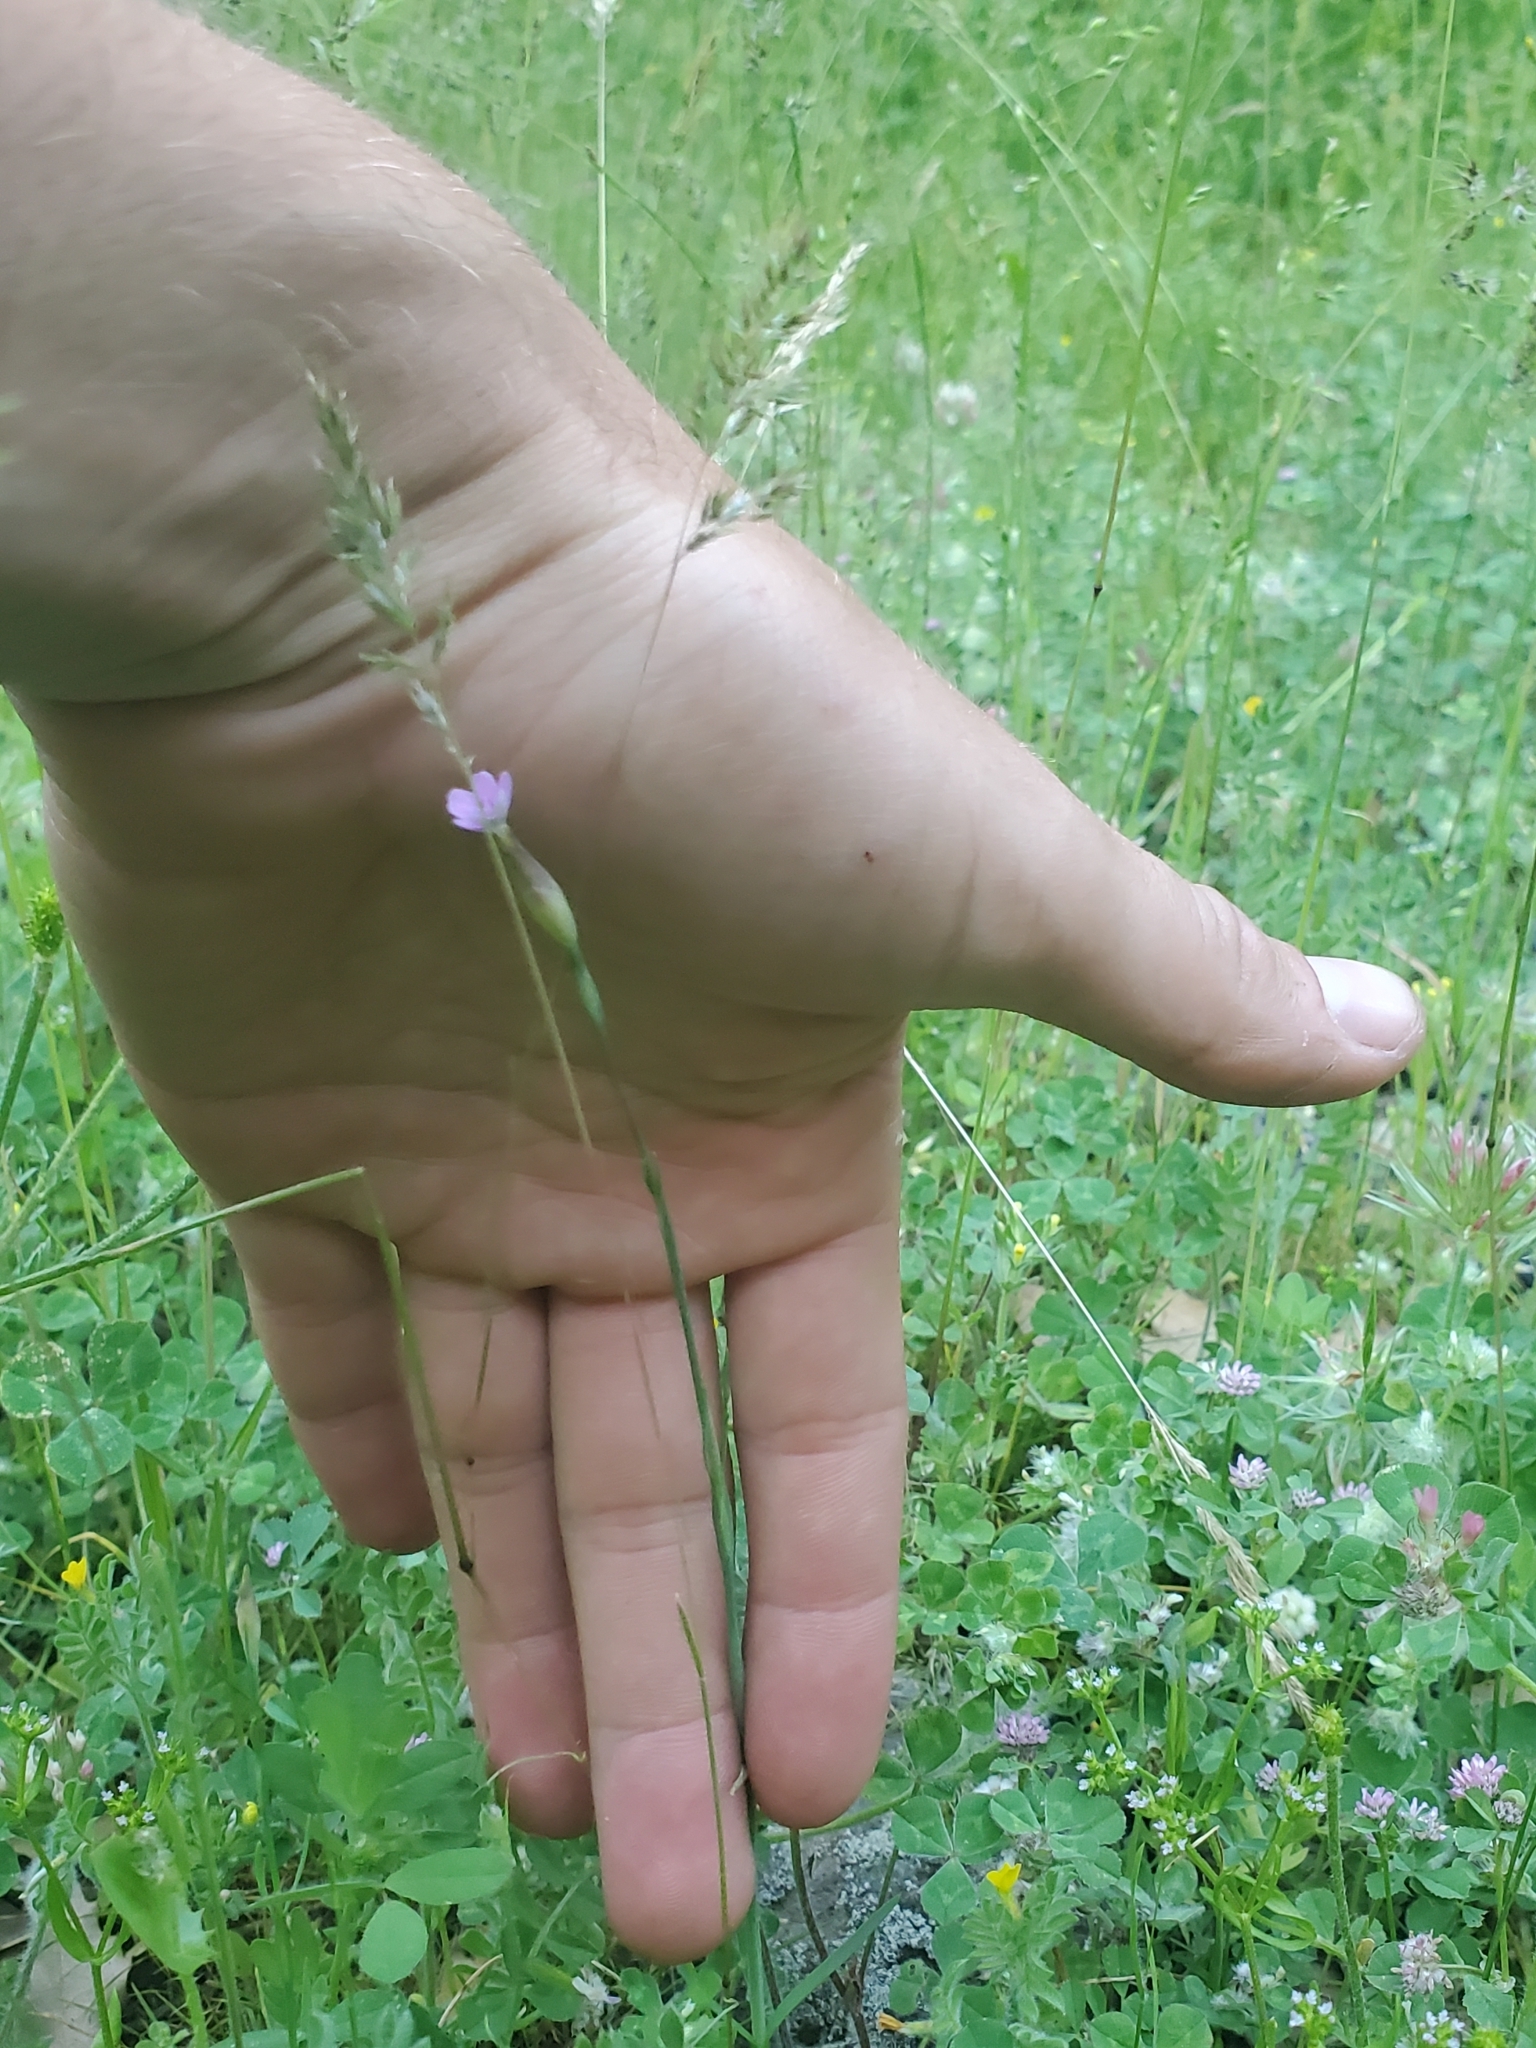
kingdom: Plantae
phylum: Tracheophyta
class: Magnoliopsida
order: Caryophyllales
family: Caryophyllaceae
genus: Petrorhagia
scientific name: Petrorhagia dubia
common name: Hairypink
